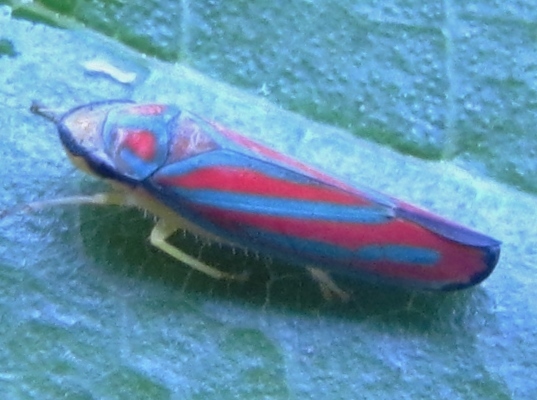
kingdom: Animalia
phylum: Arthropoda
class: Insecta
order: Hemiptera
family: Cicadellidae
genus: Graphocephala
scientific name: Graphocephala coccinea
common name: Candy-striped leafhopper
